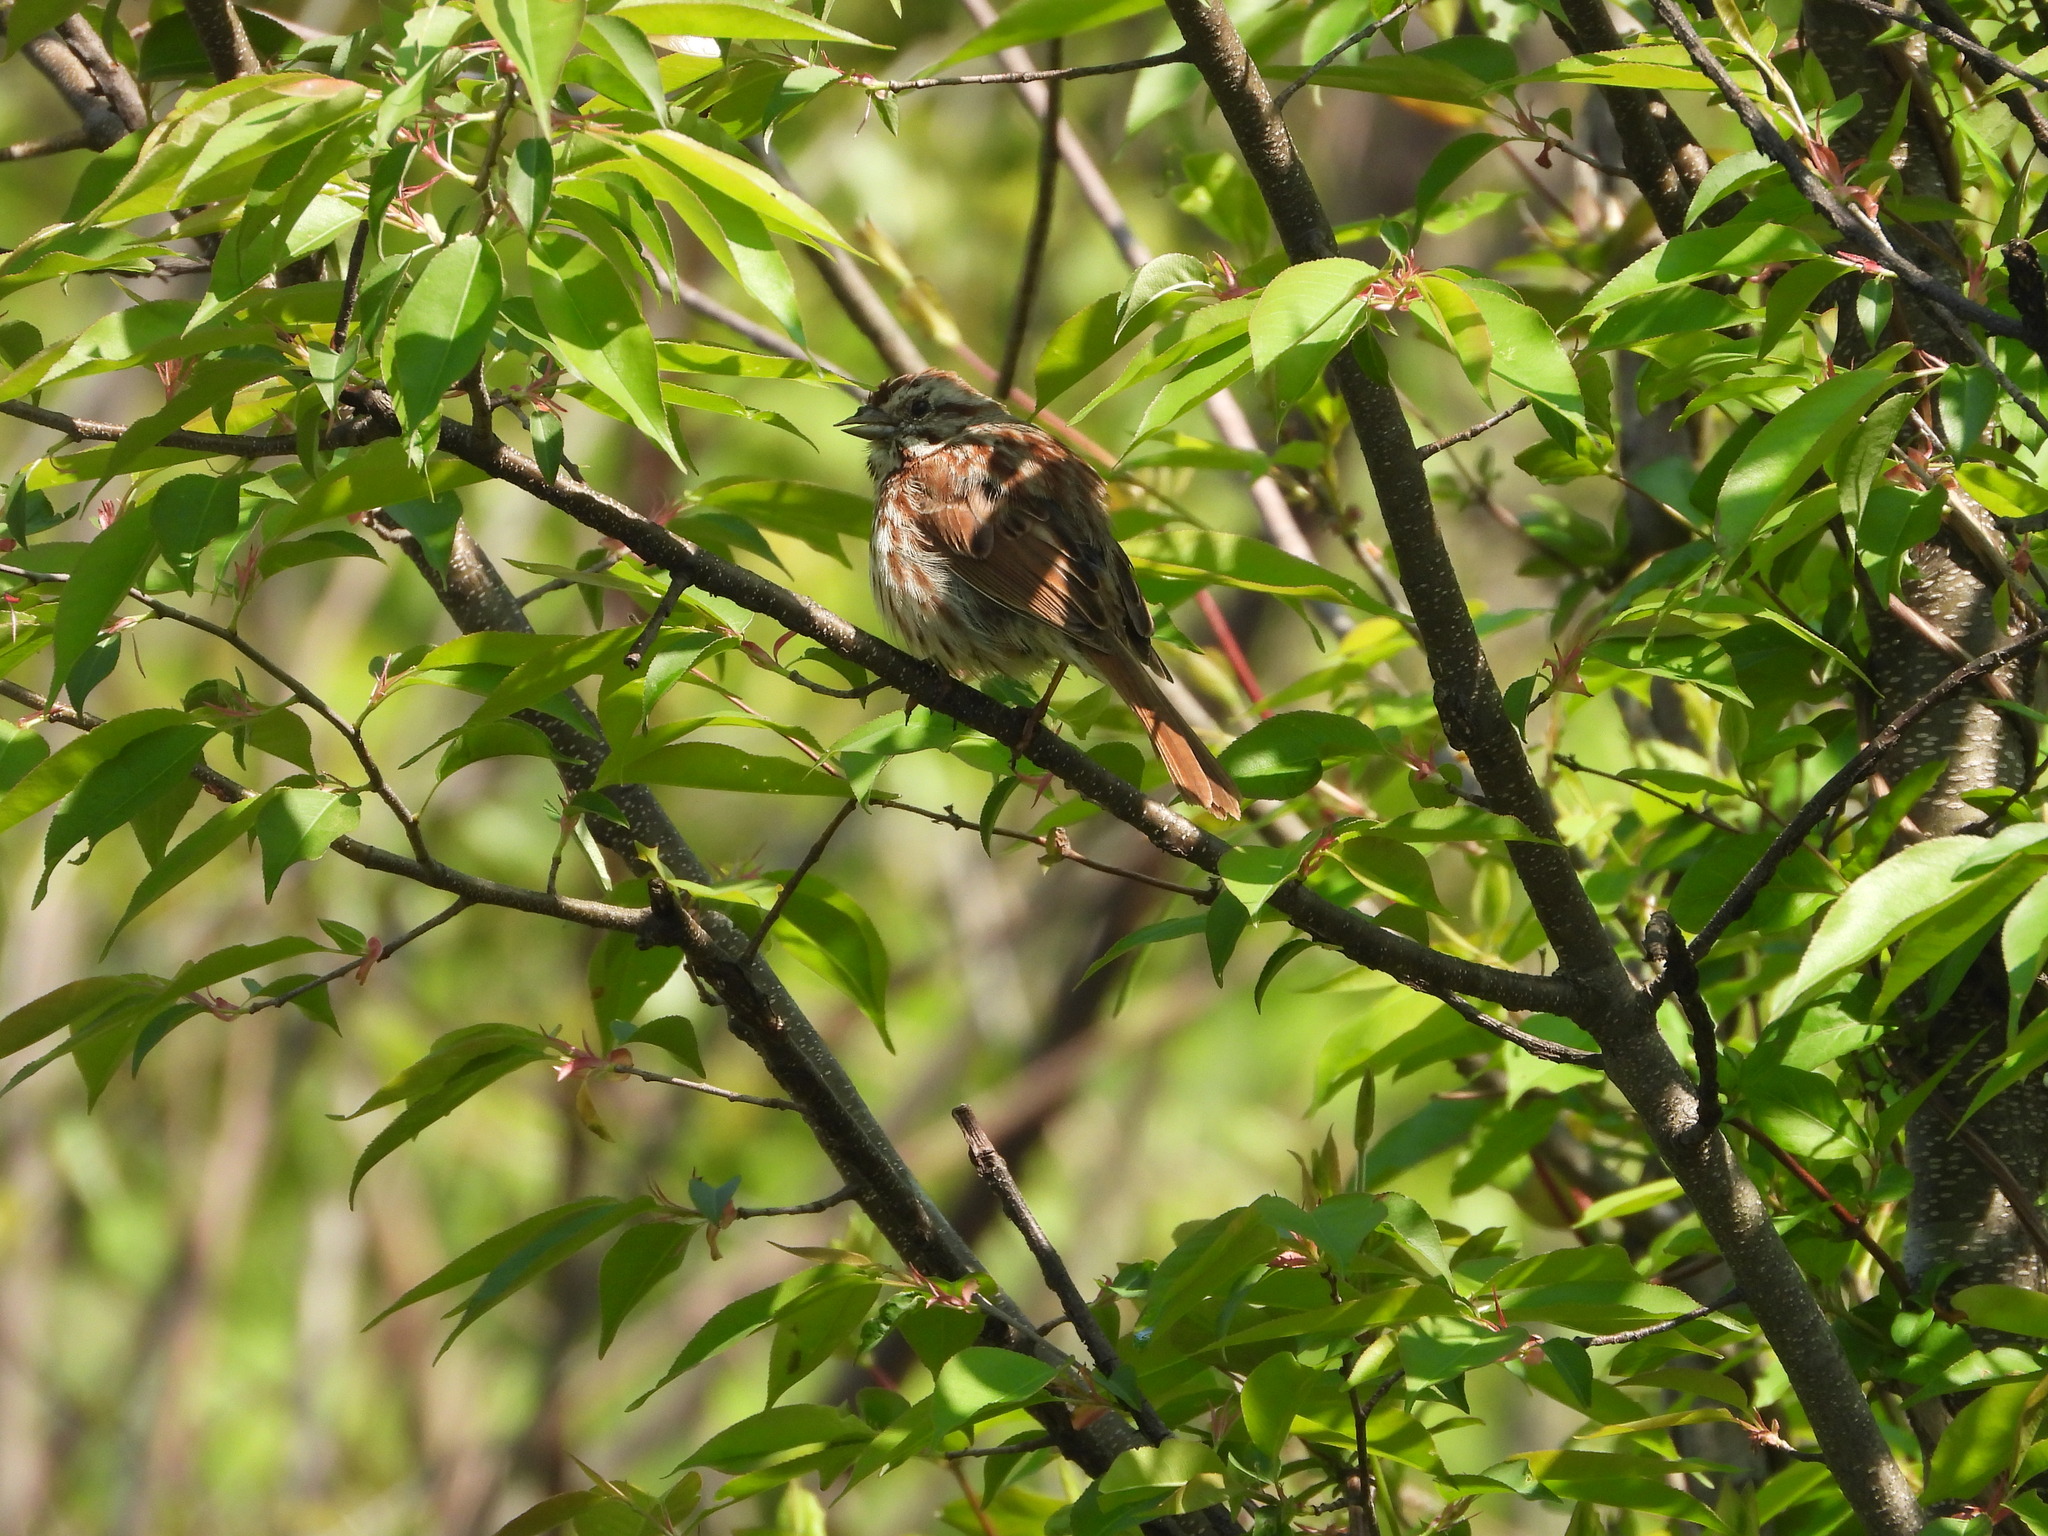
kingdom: Animalia
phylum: Chordata
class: Aves
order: Passeriformes
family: Passerellidae
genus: Melospiza
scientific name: Melospiza melodia
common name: Song sparrow
